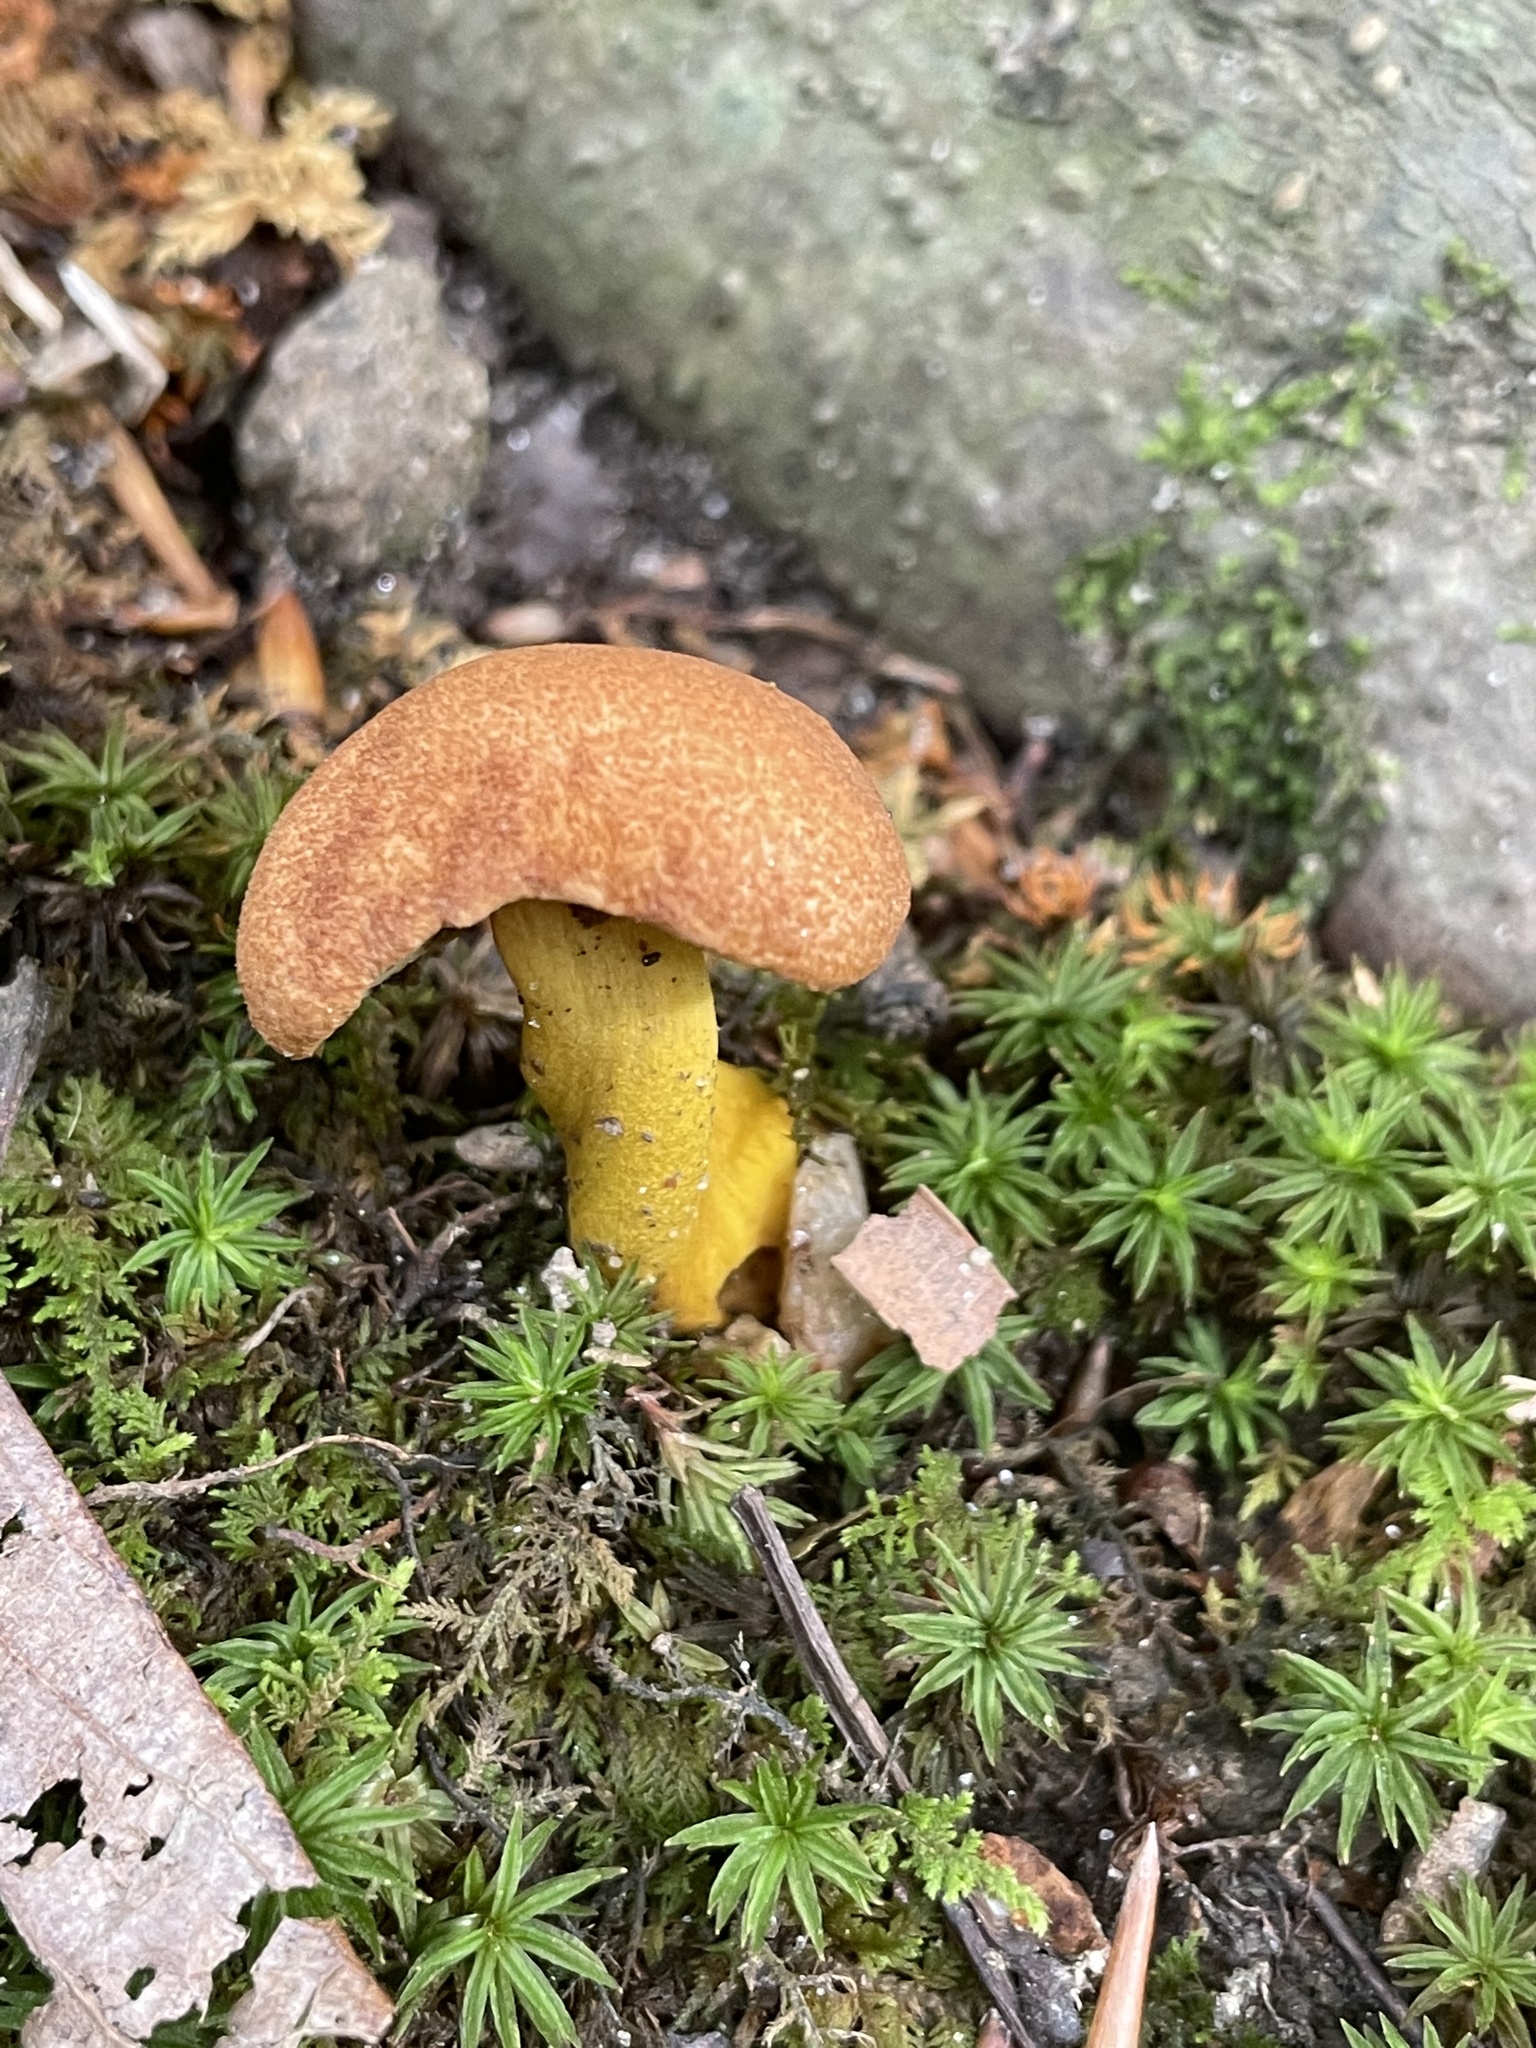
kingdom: Fungi
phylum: Basidiomycota
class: Agaricomycetes
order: Boletales
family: Boletaceae
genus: Aureoboletus
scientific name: Aureoboletus roxanae
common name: Roxane's bolete
